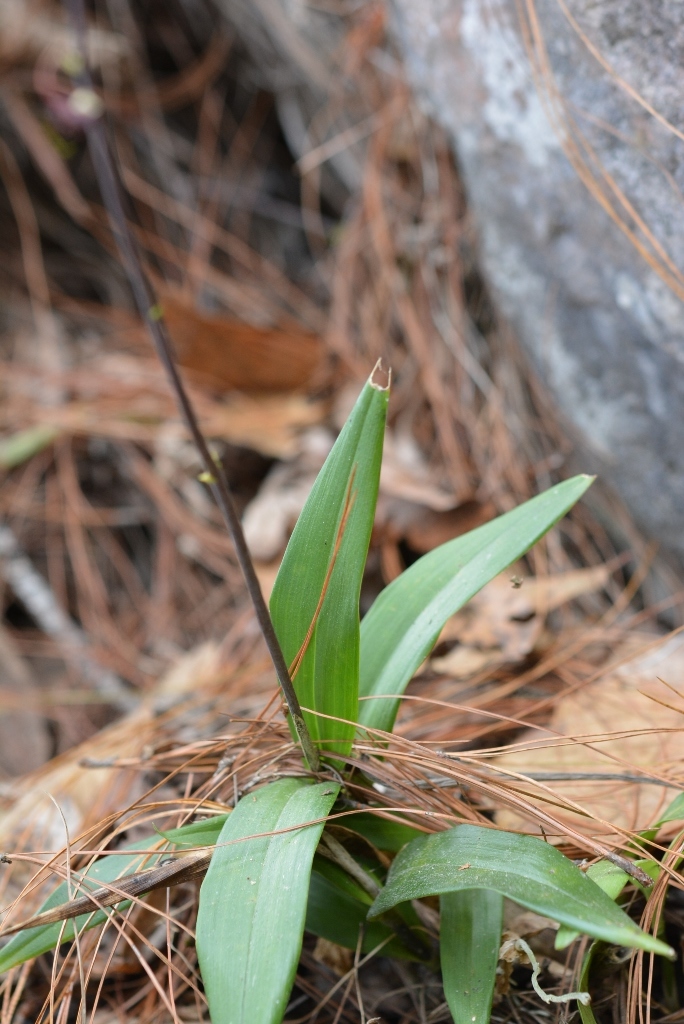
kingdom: Plantae
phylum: Tracheophyta
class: Liliopsida
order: Asparagales
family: Orchidaceae
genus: Prosthechea
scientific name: Prosthechea varicosa
